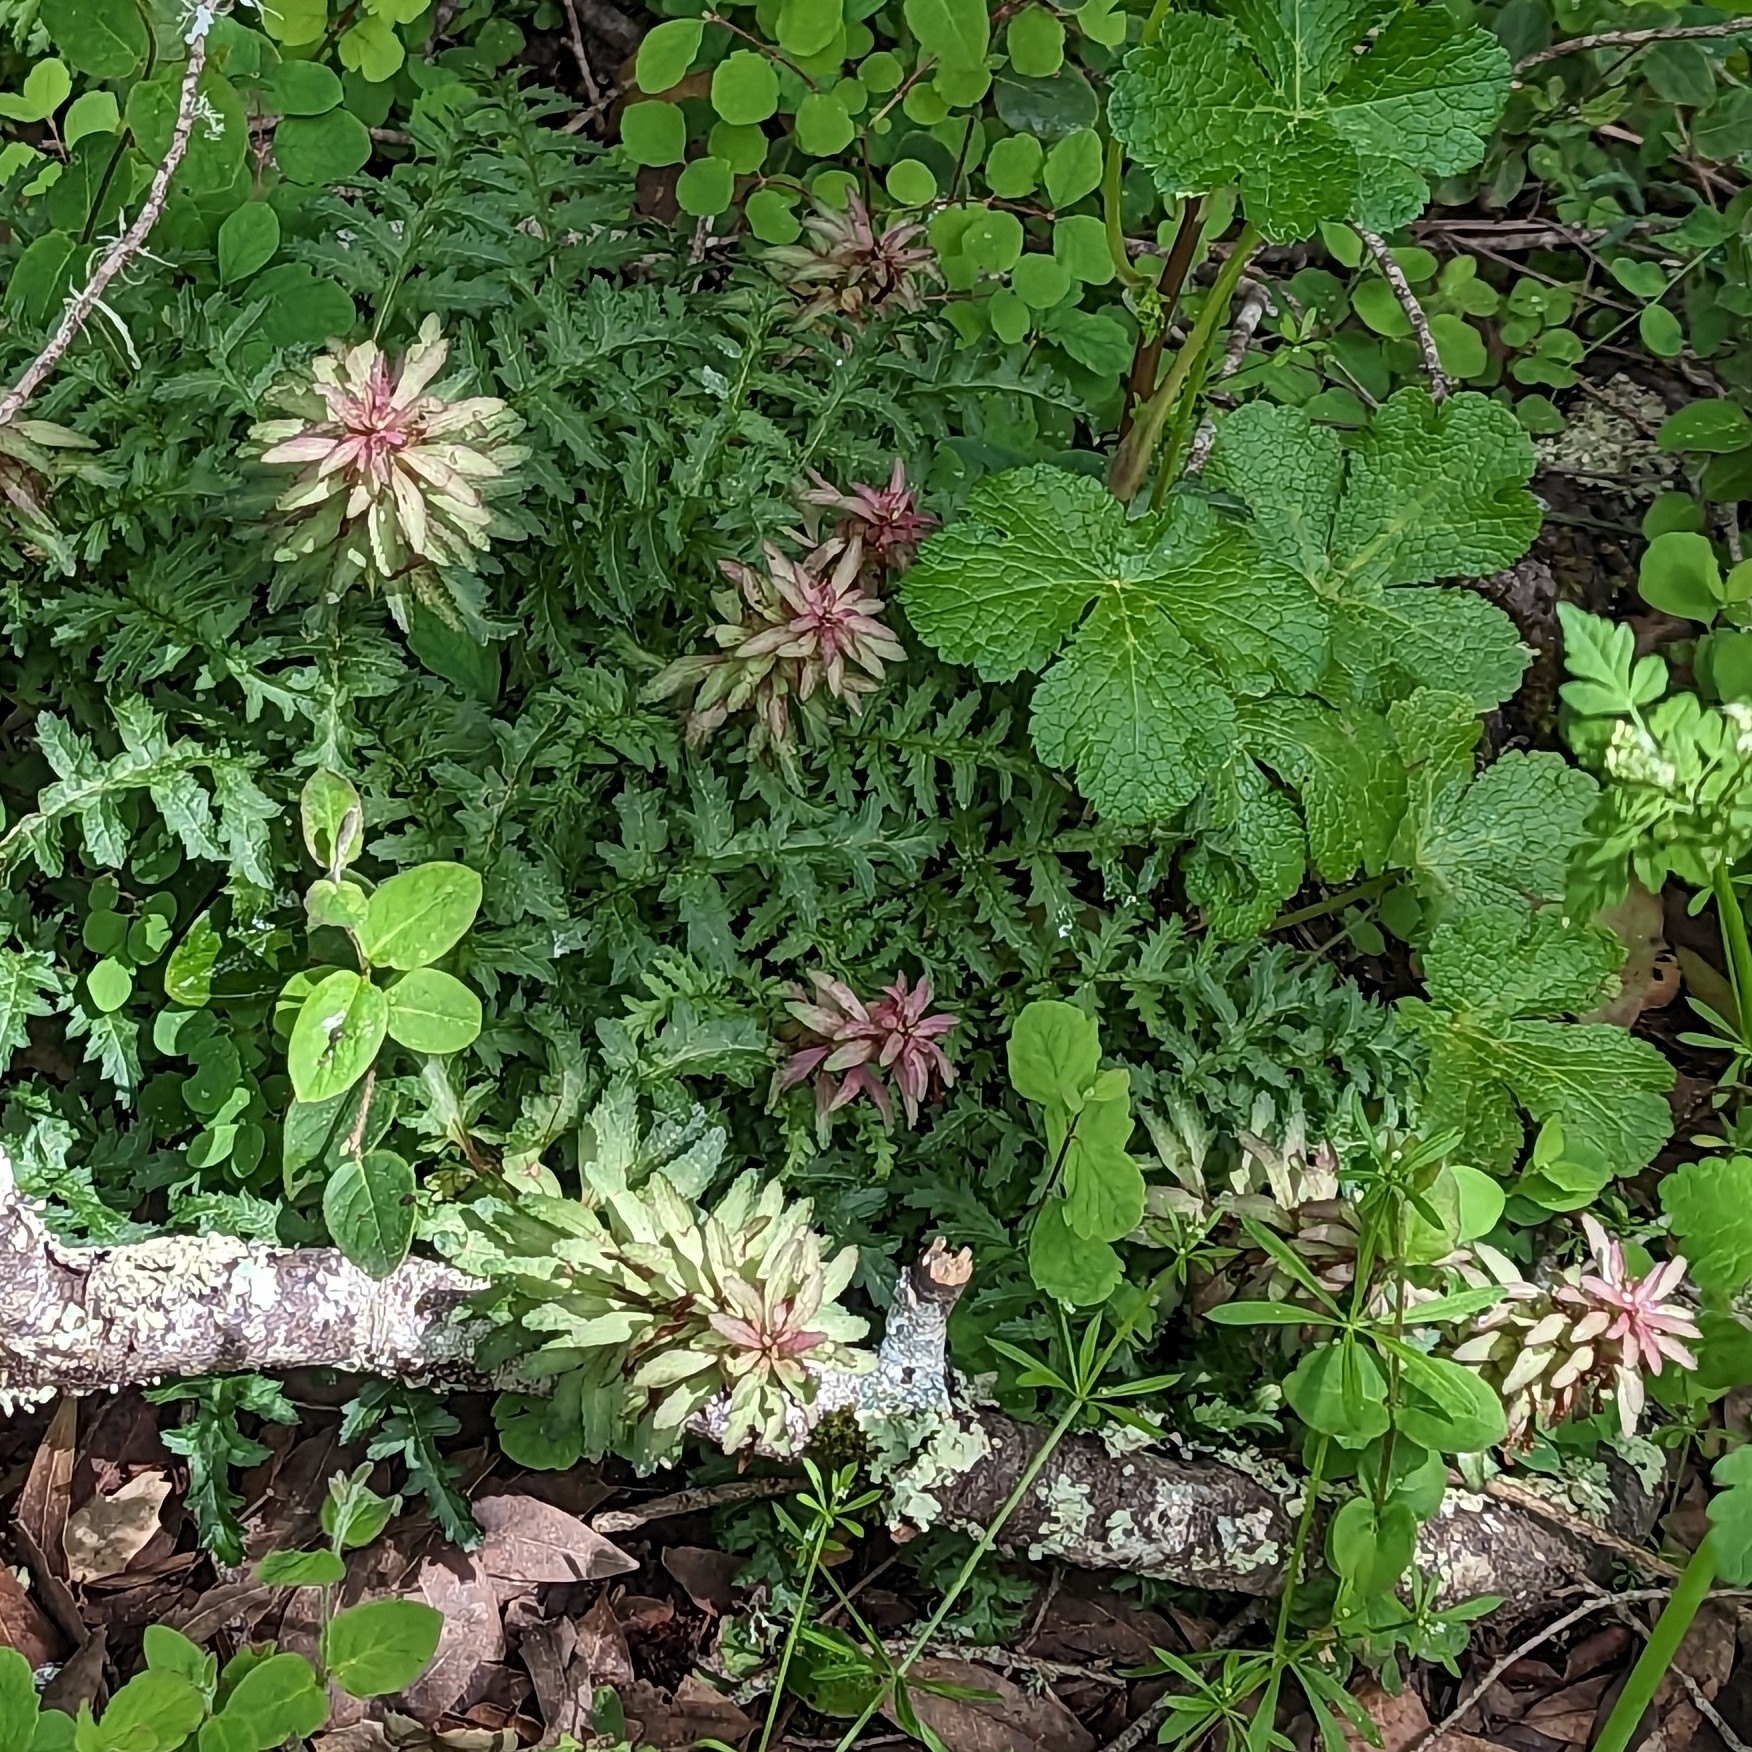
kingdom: Plantae
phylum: Tracheophyta
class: Magnoliopsida
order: Lamiales
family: Orobanchaceae
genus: Pedicularis
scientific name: Pedicularis densiflora
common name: Indian warrior
